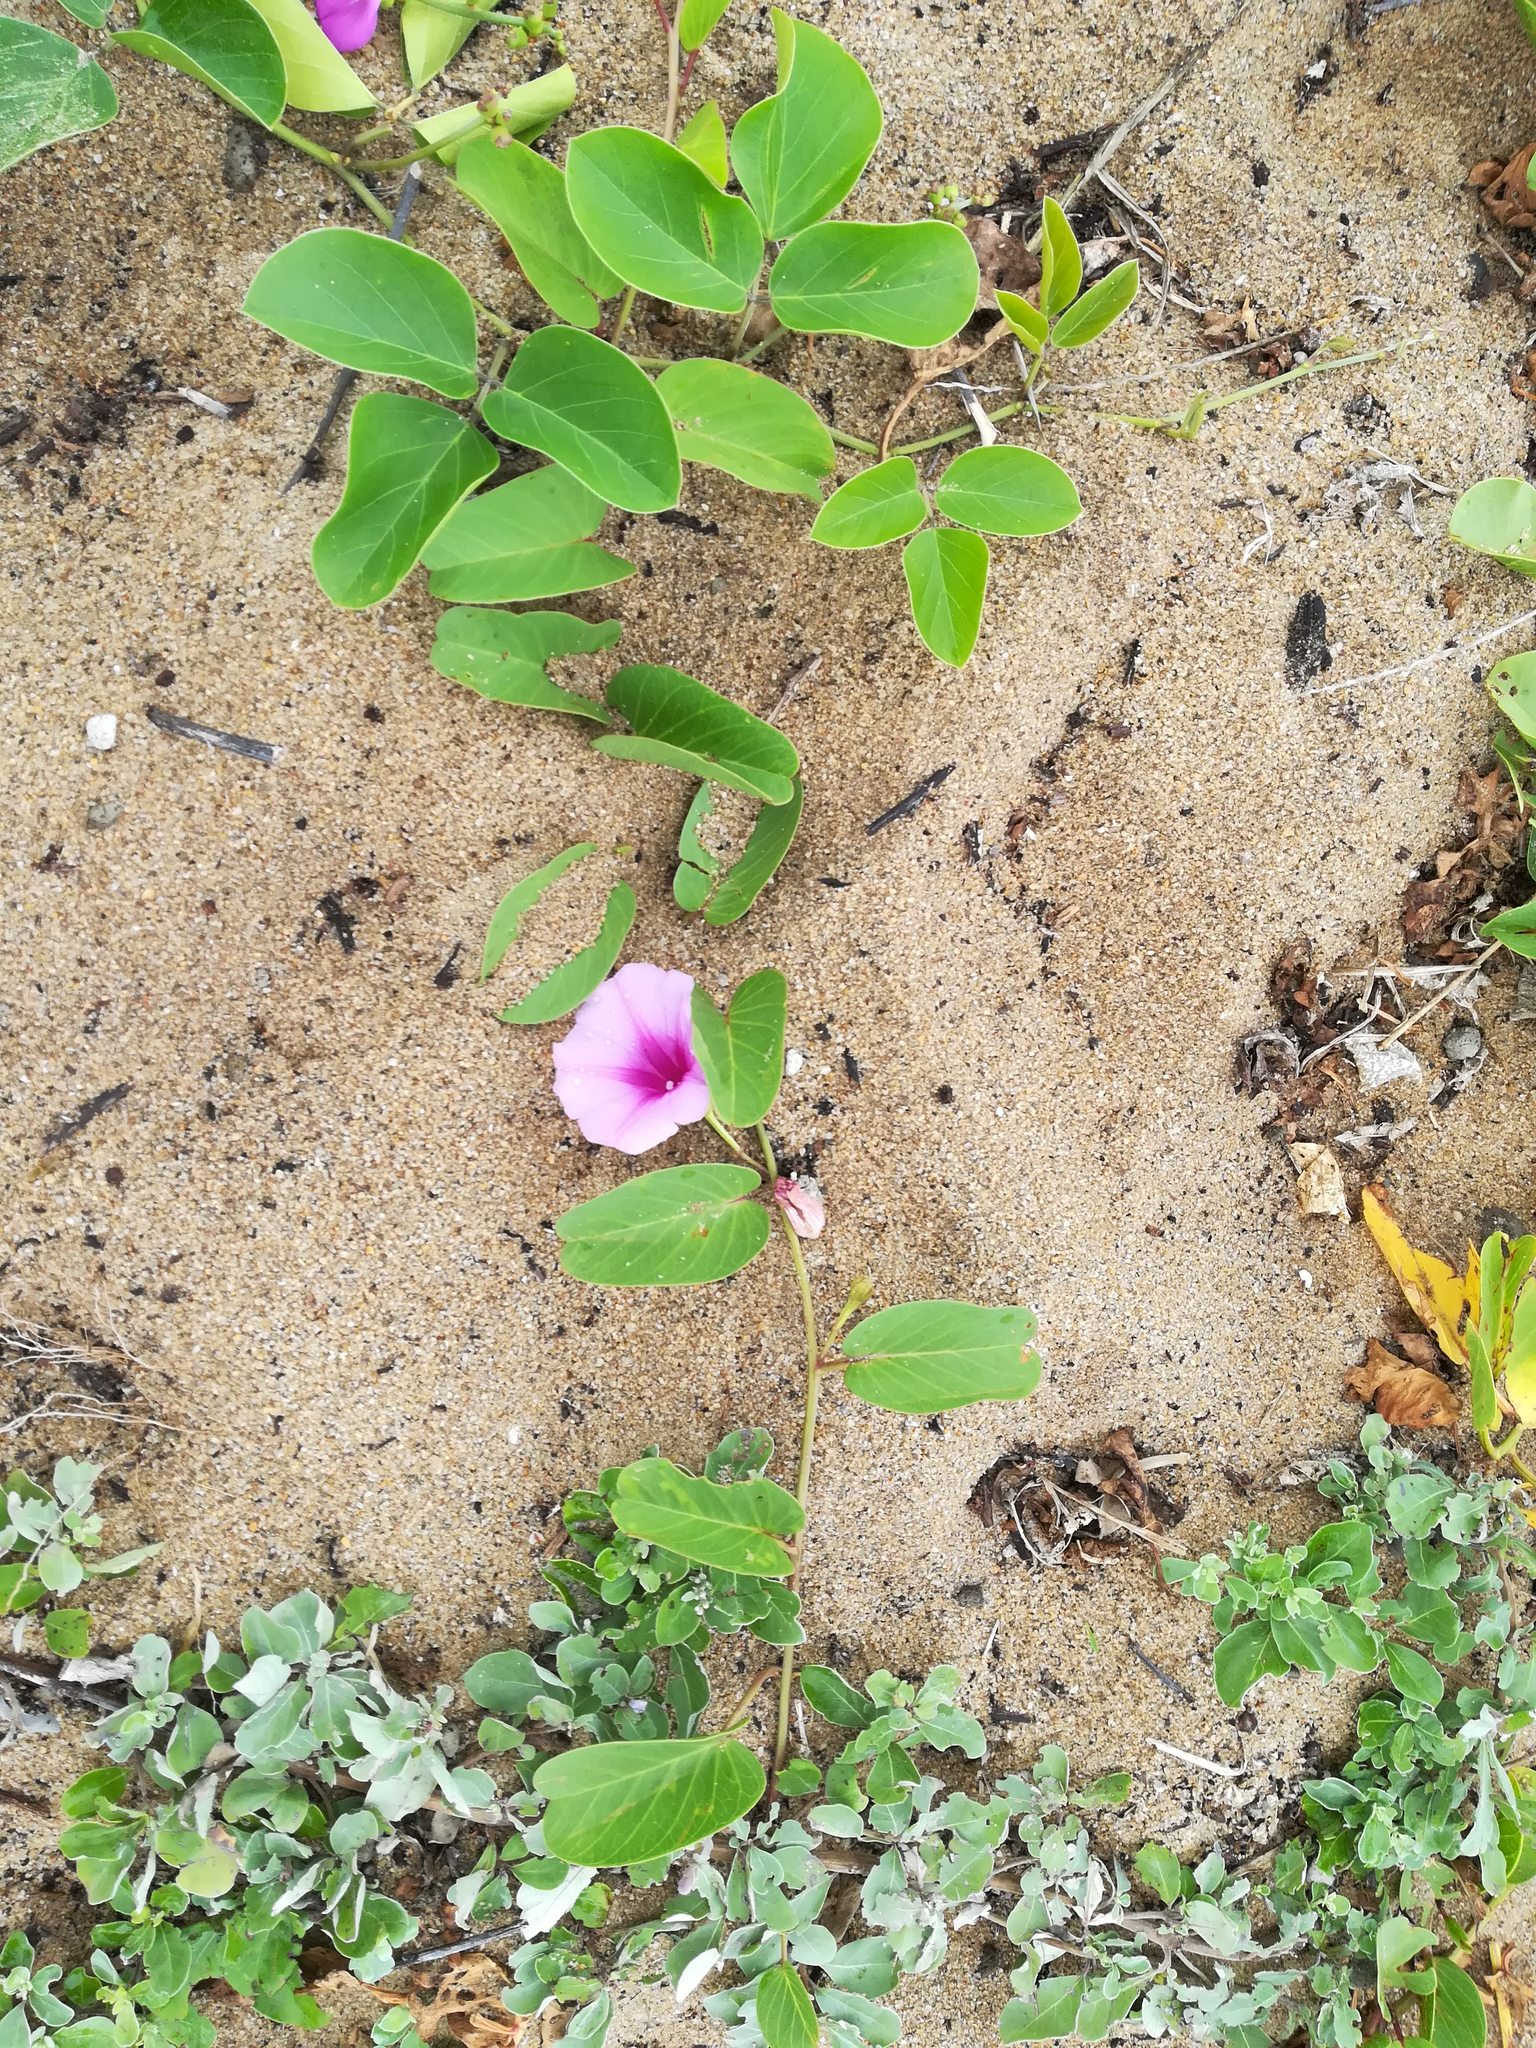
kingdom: Plantae
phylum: Tracheophyta
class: Magnoliopsida
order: Solanales
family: Convolvulaceae
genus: Ipomoea
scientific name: Ipomoea pes-caprae
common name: Beach morning glory
